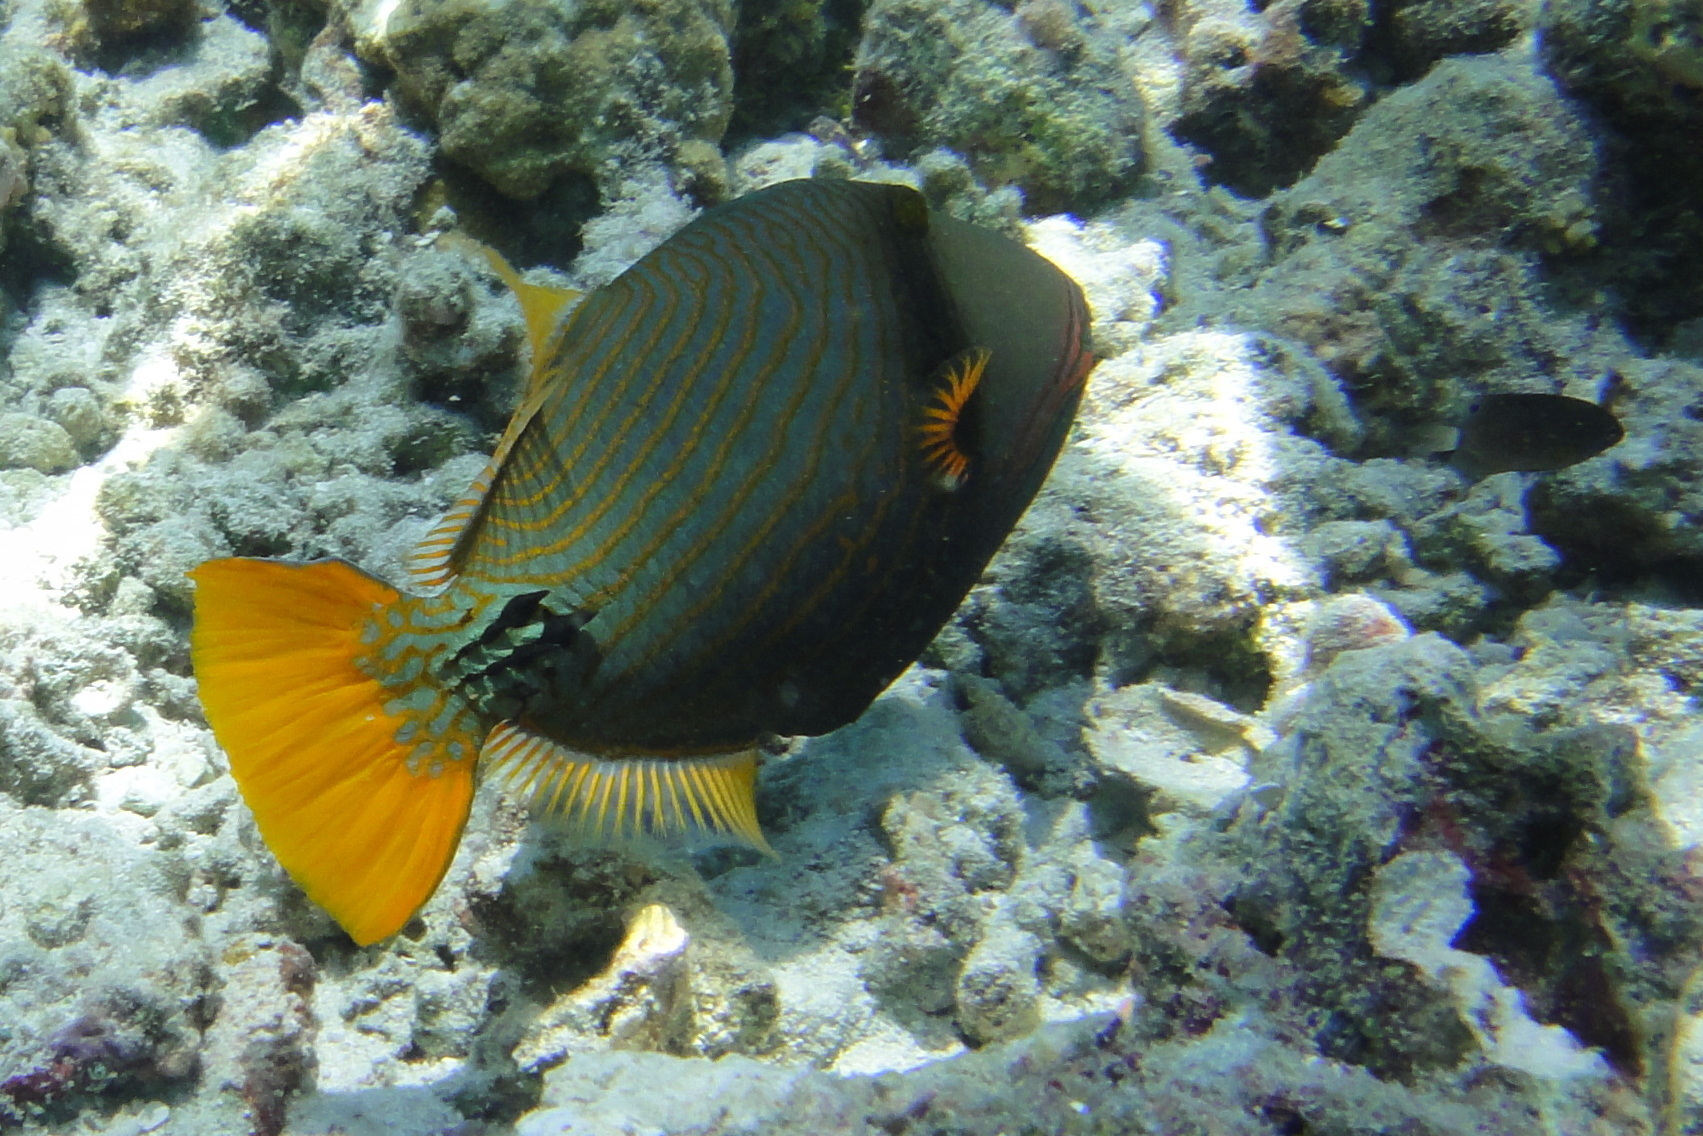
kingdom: Animalia
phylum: Chordata
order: Tetraodontiformes
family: Balistidae
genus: Balistapus
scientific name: Balistapus undulatus
